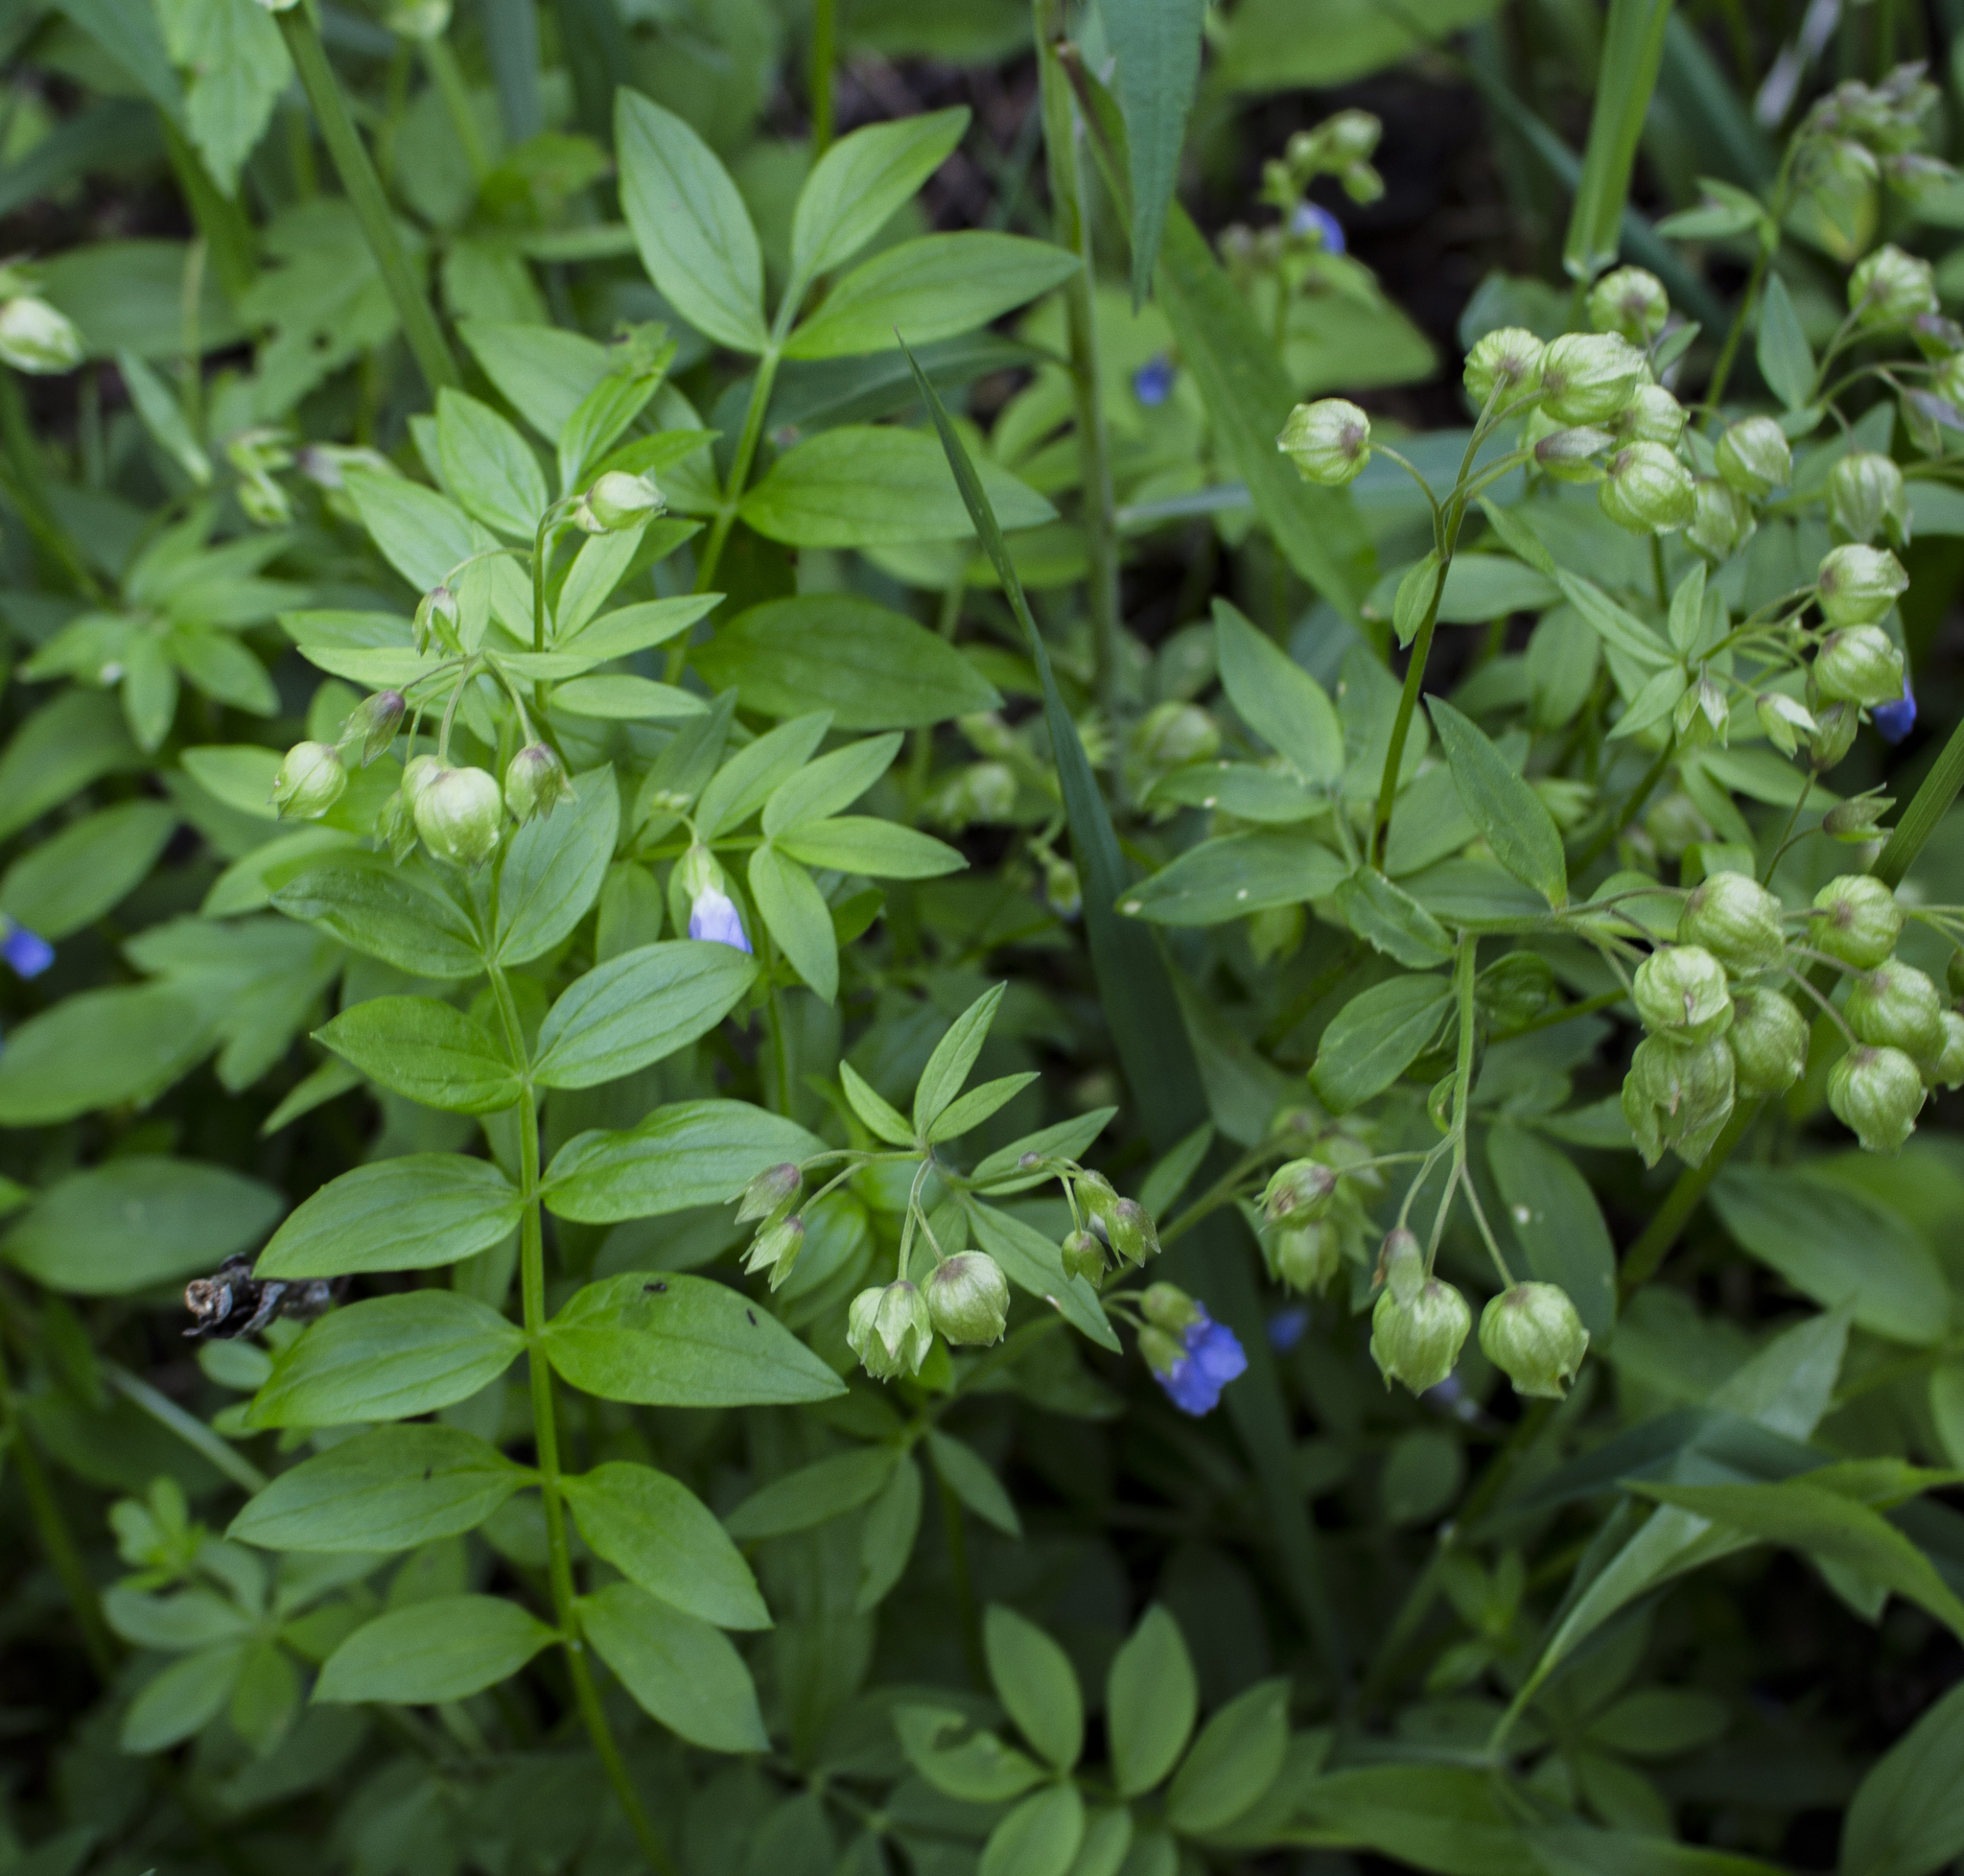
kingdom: Plantae
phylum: Tracheophyta
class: Magnoliopsida
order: Ericales
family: Polemoniaceae
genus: Polemonium
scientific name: Polemonium reptans
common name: Creeping jacob's-ladder
